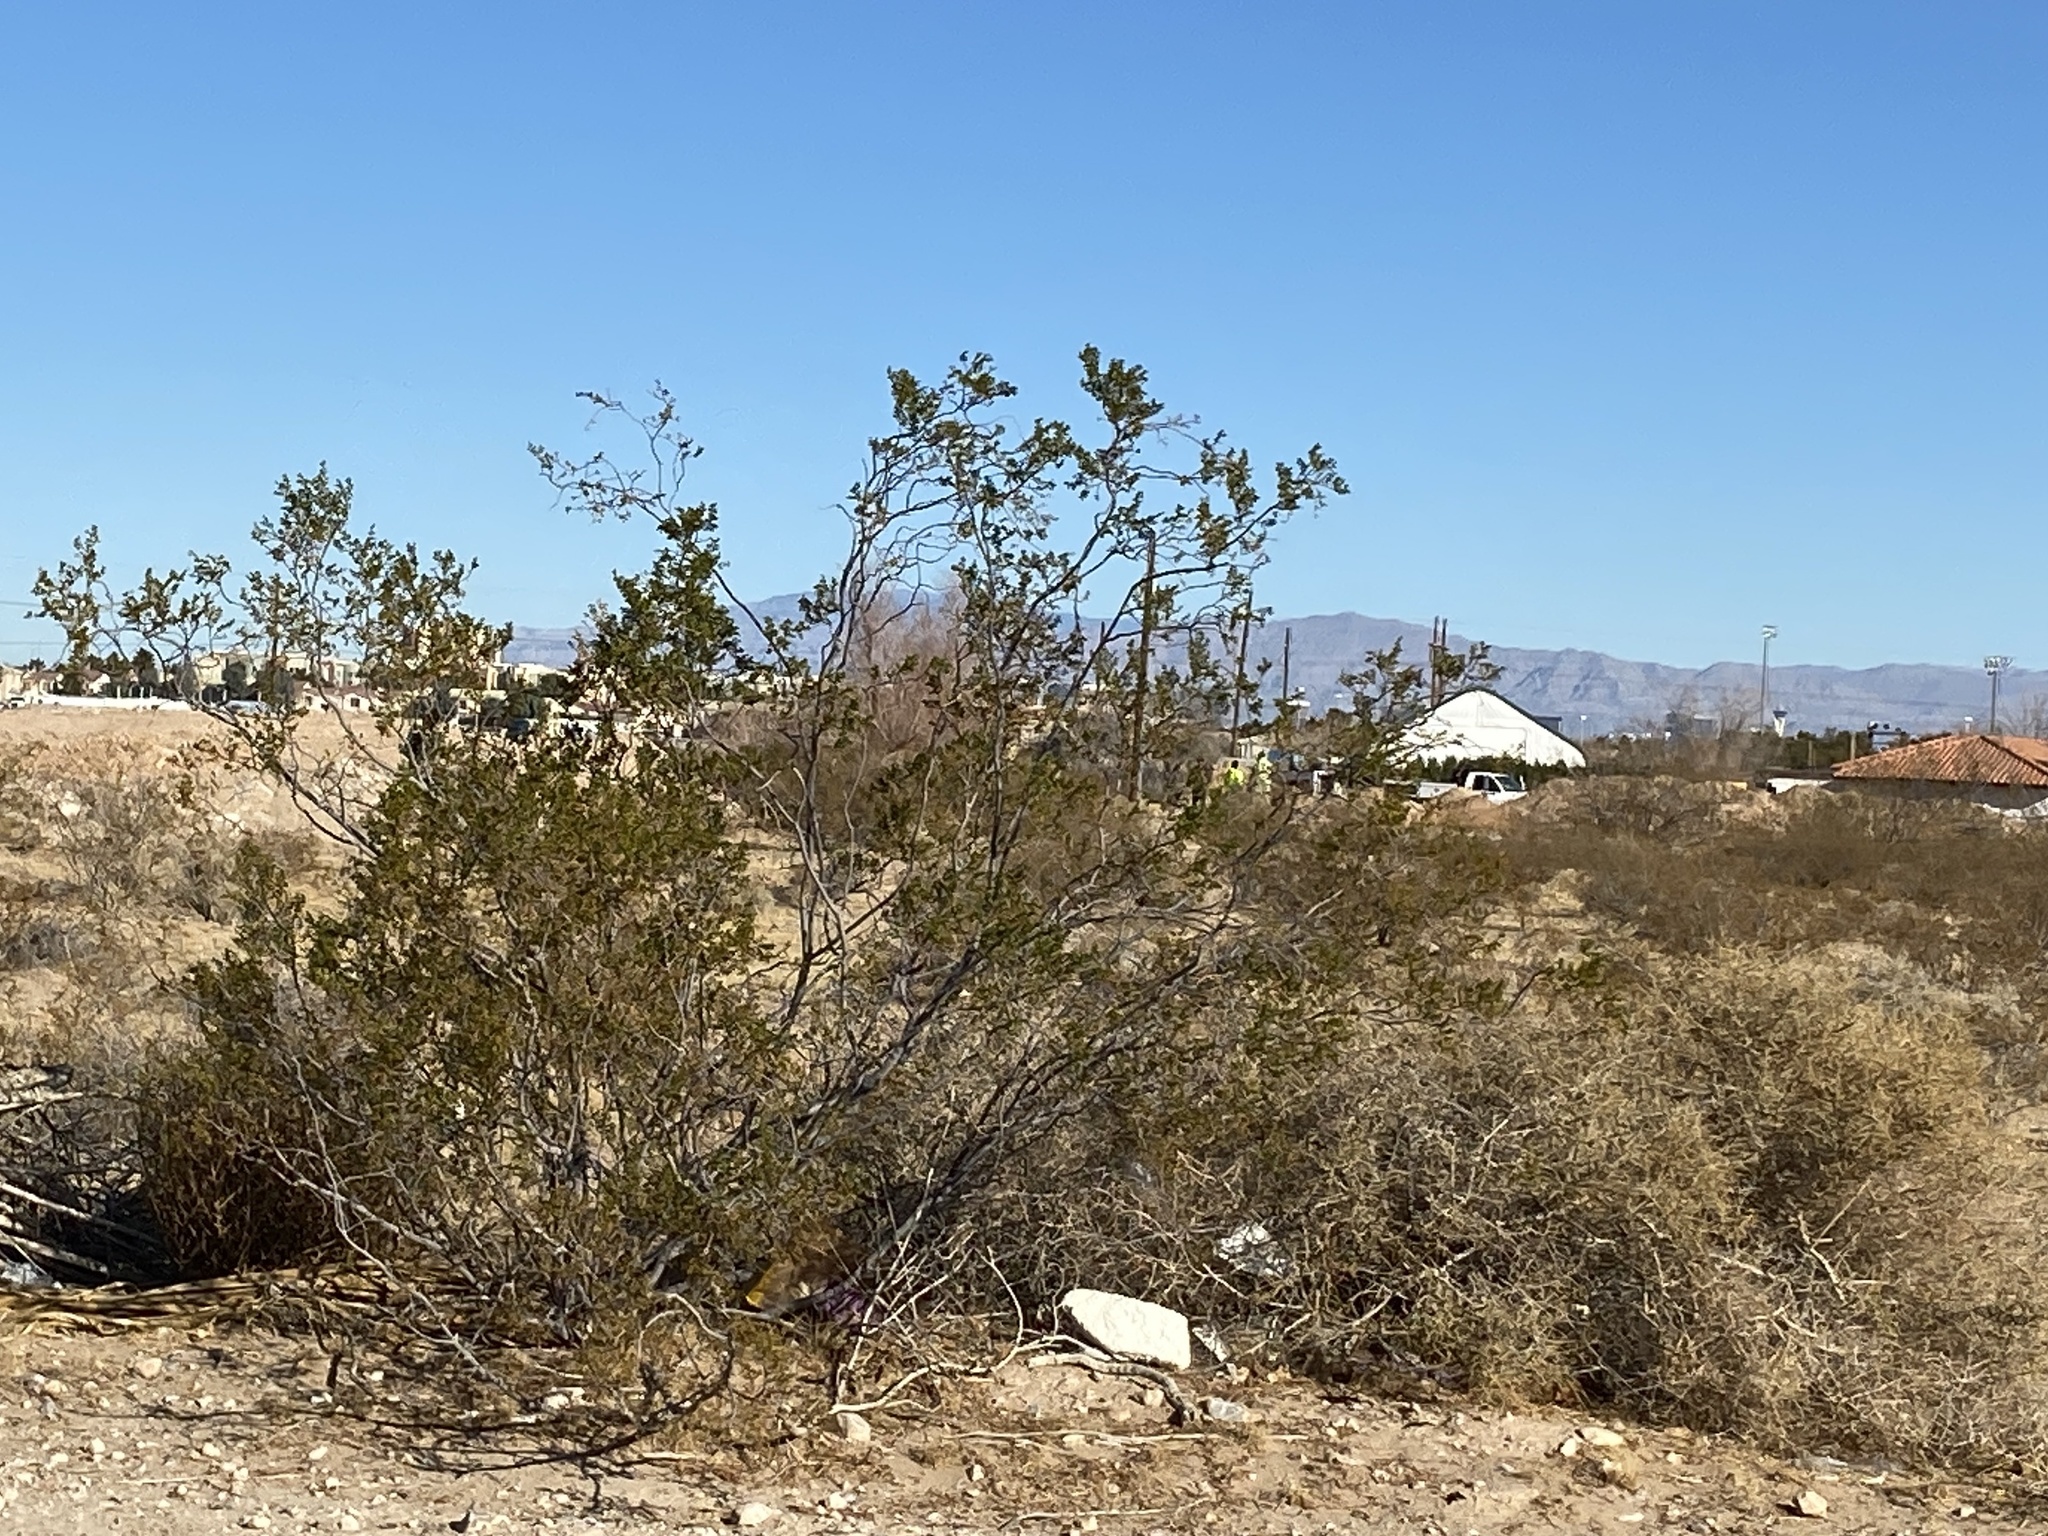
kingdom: Plantae
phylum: Tracheophyta
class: Magnoliopsida
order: Zygophyllales
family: Zygophyllaceae
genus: Larrea
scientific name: Larrea tridentata
